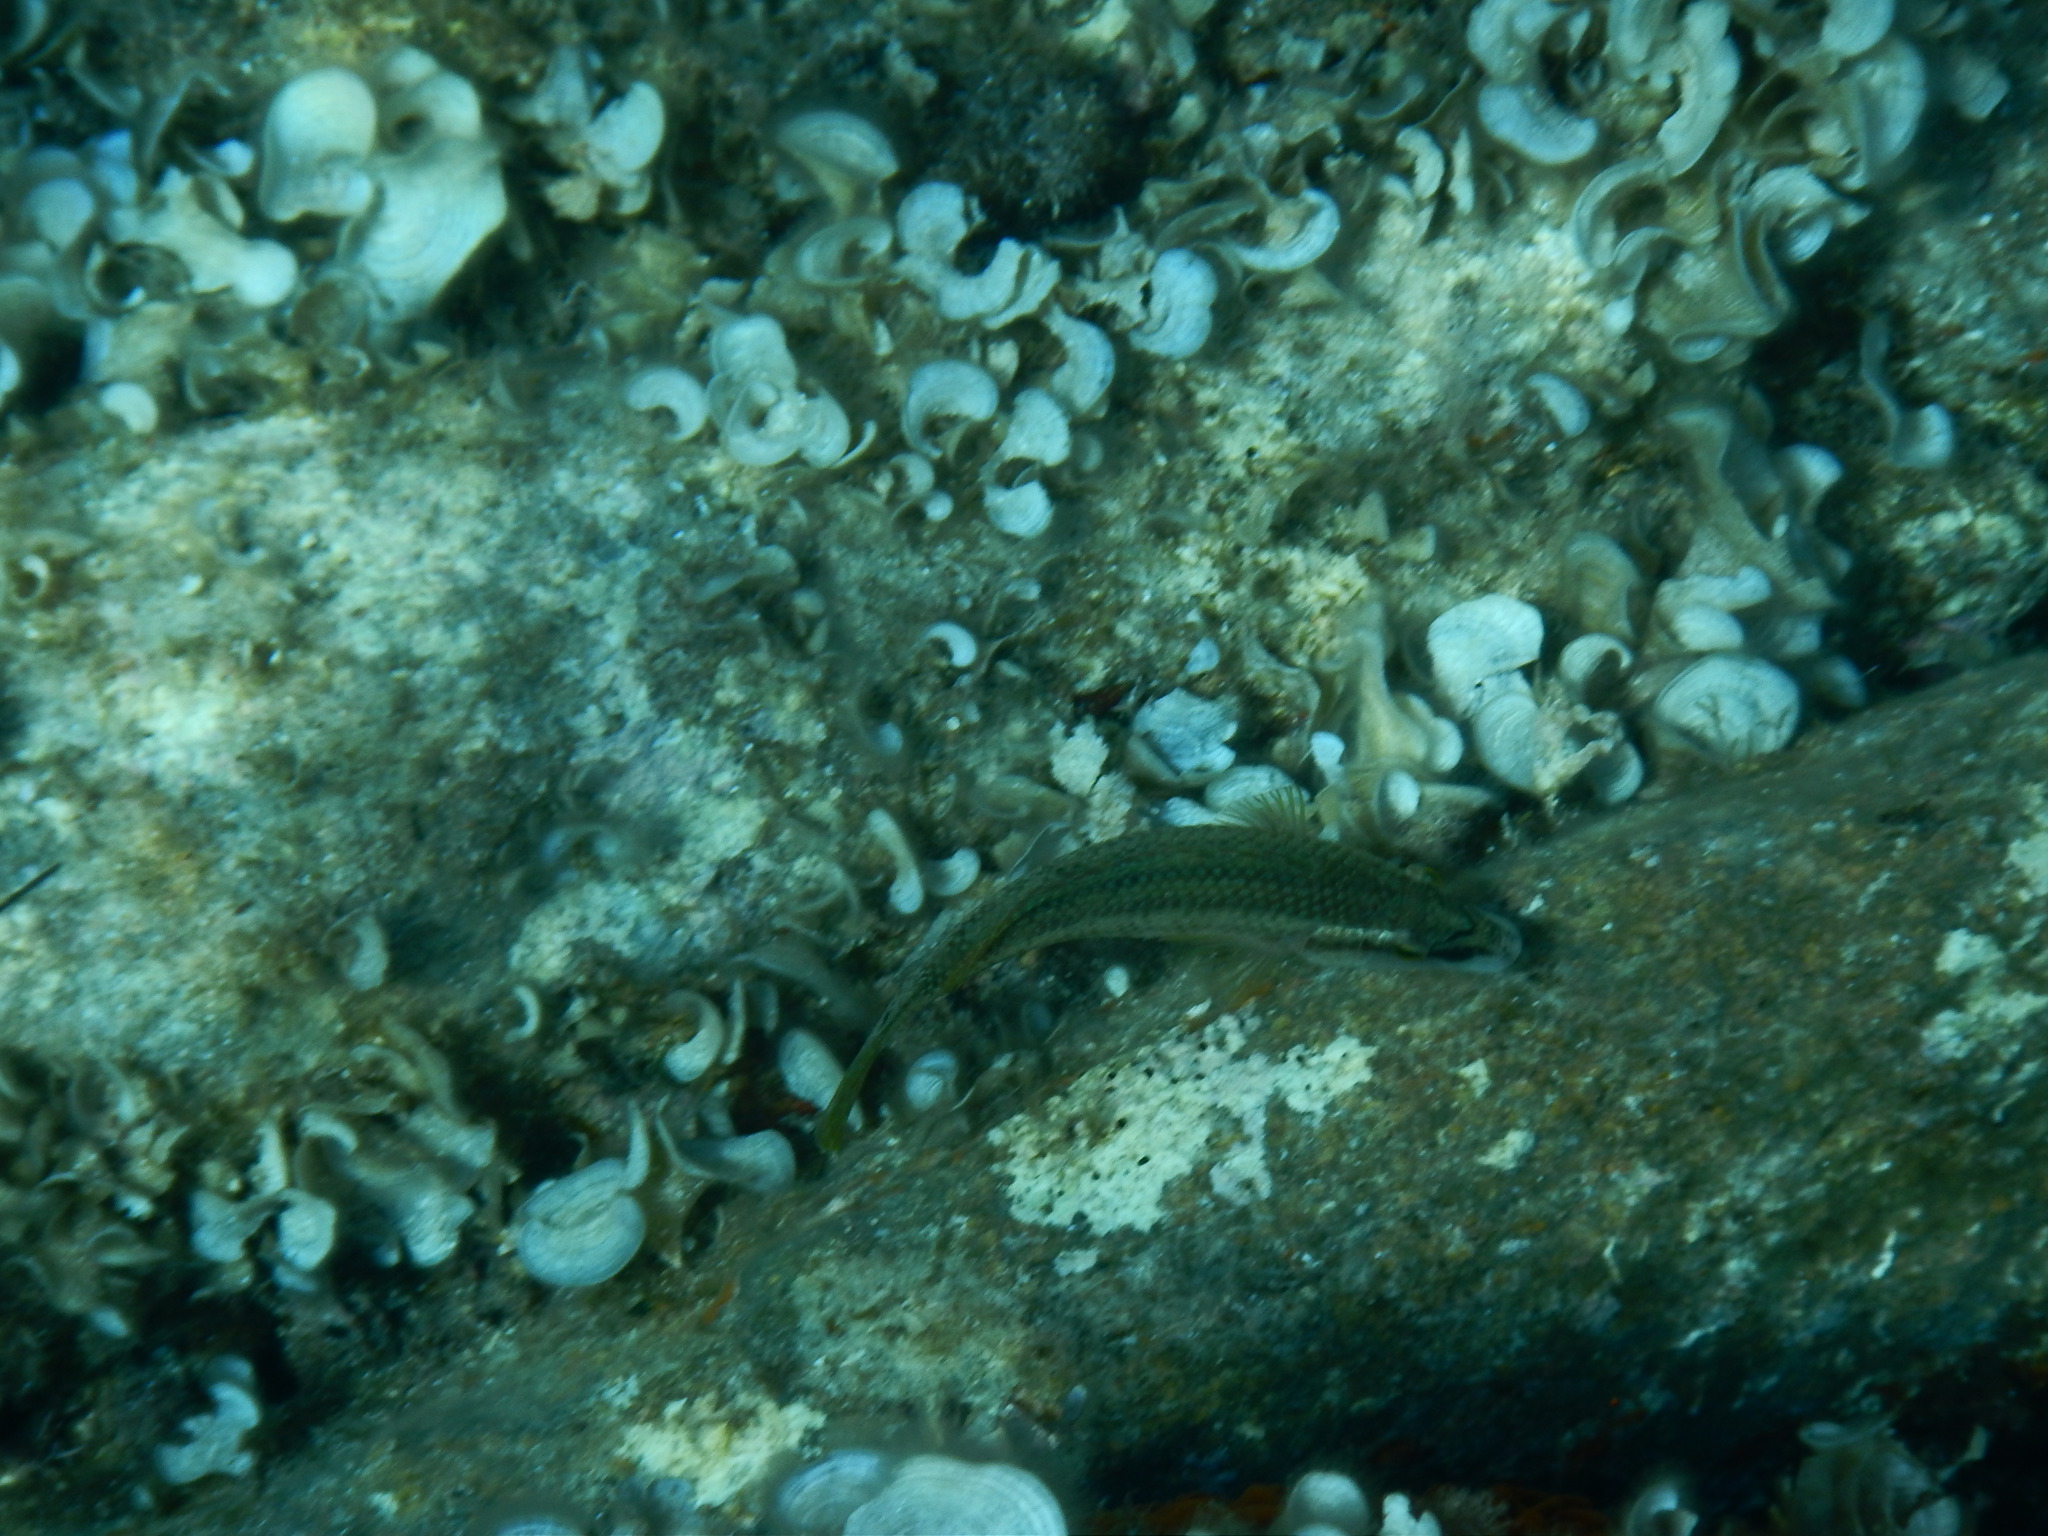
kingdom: Animalia
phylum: Chordata
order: Perciformes
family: Labridae
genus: Symphodus
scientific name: Symphodus tinca
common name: Peacock wrasse
